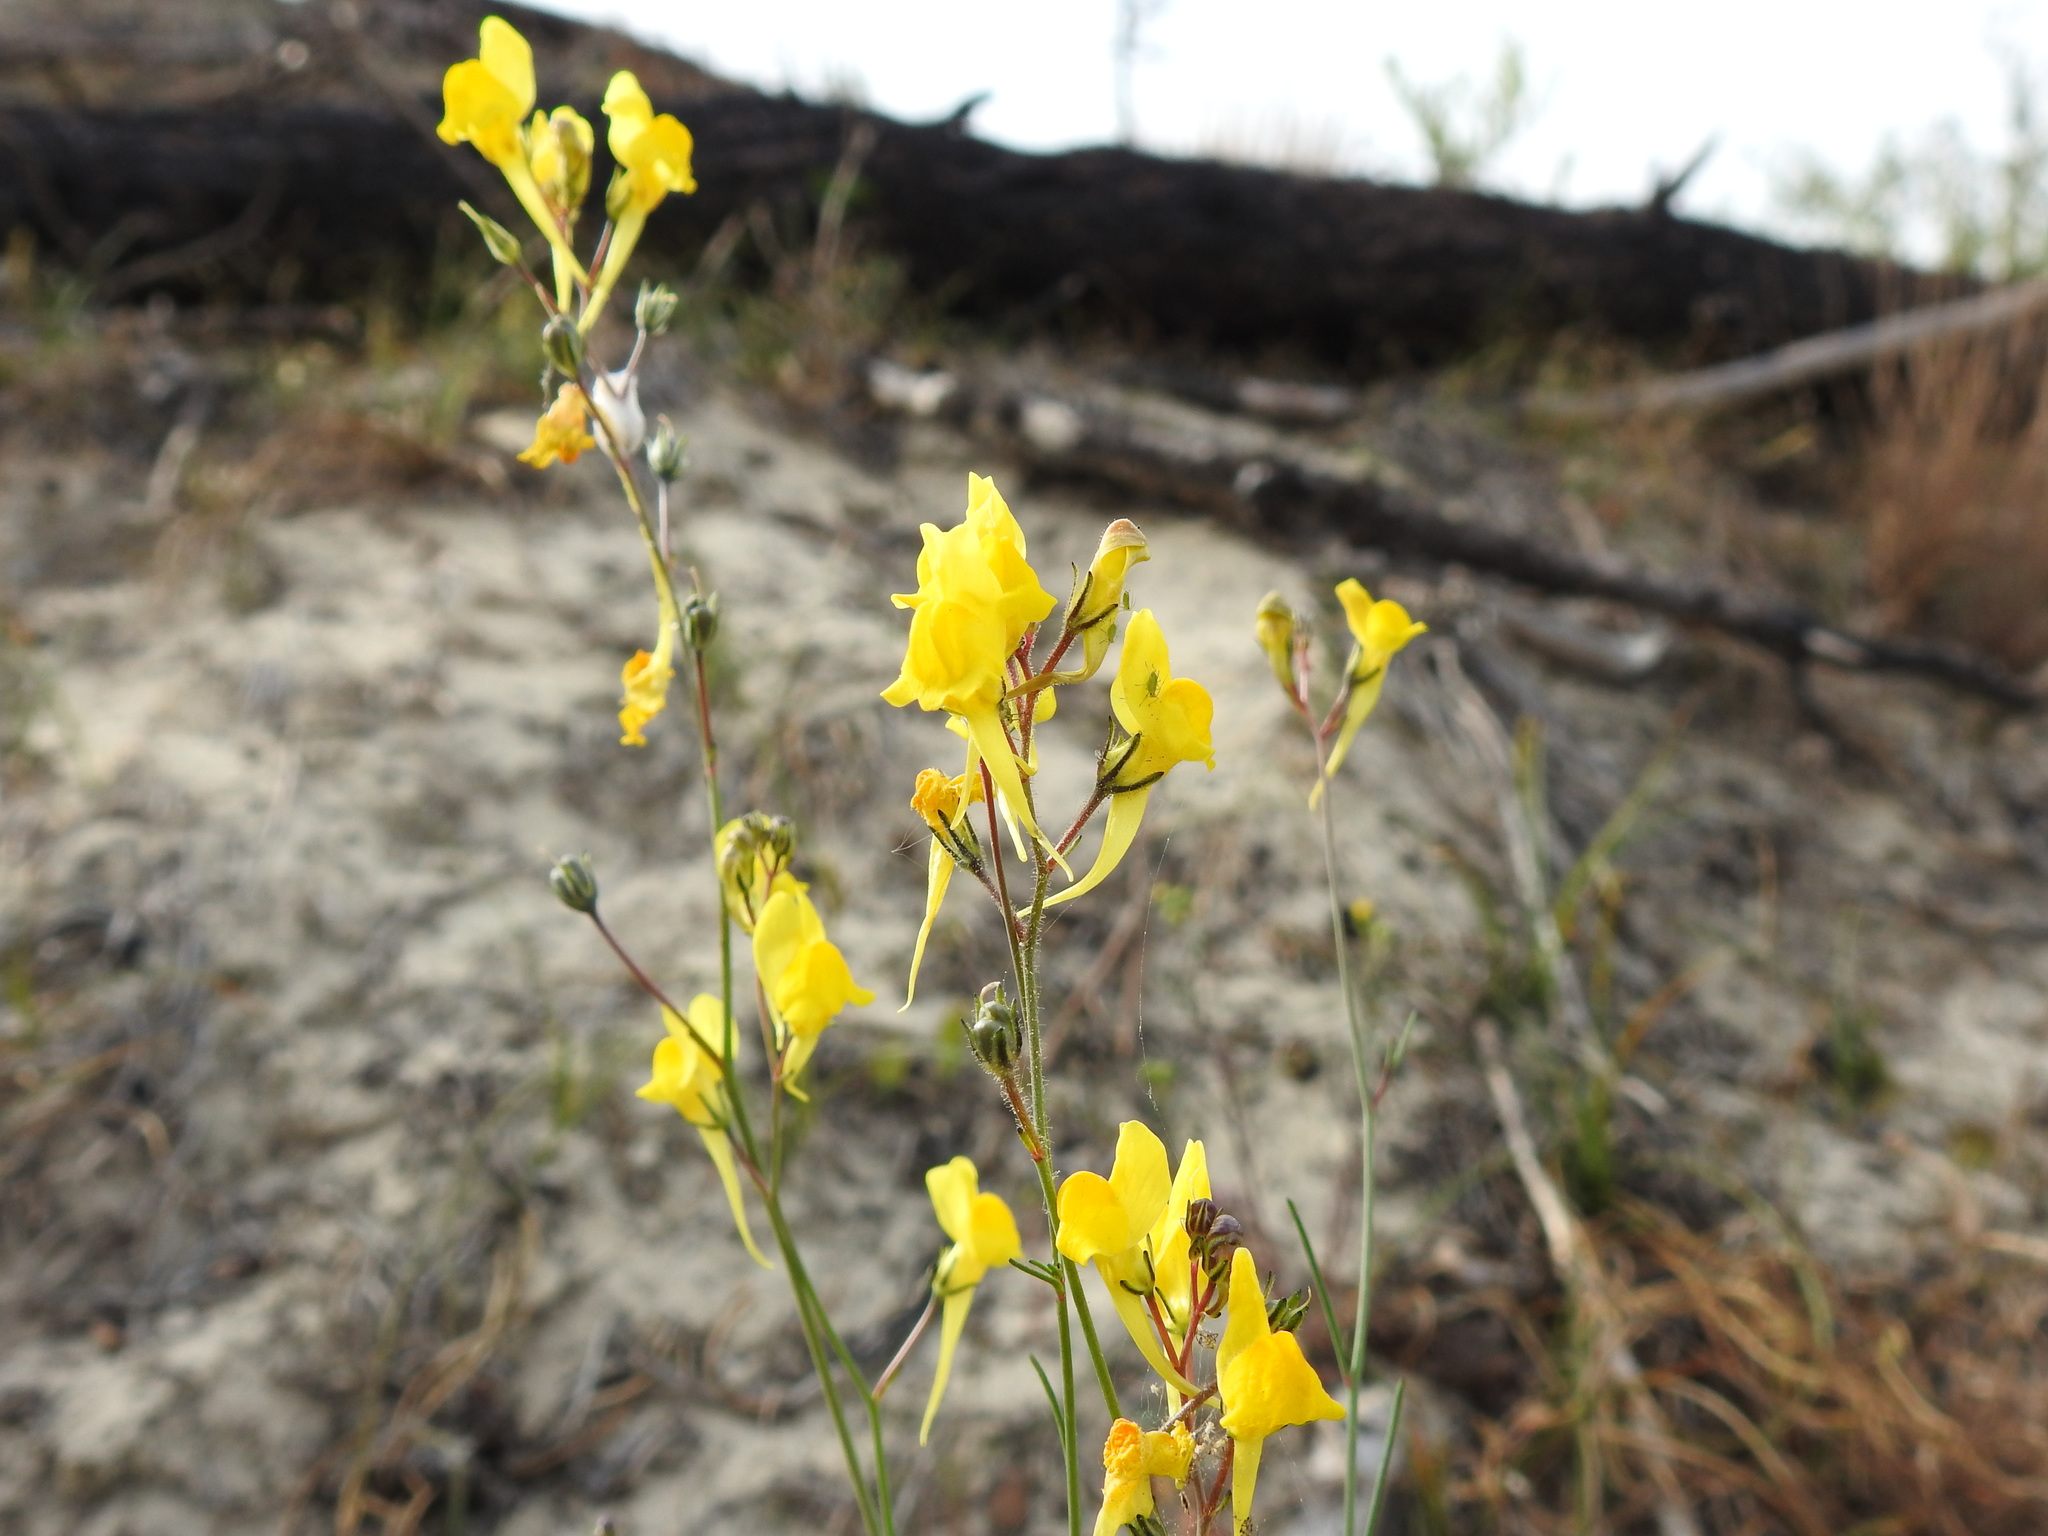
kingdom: Plantae
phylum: Tracheophyta
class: Magnoliopsida
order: Lamiales
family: Plantaginaceae
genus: Linaria
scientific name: Linaria spartea
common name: Ballast toadflax
